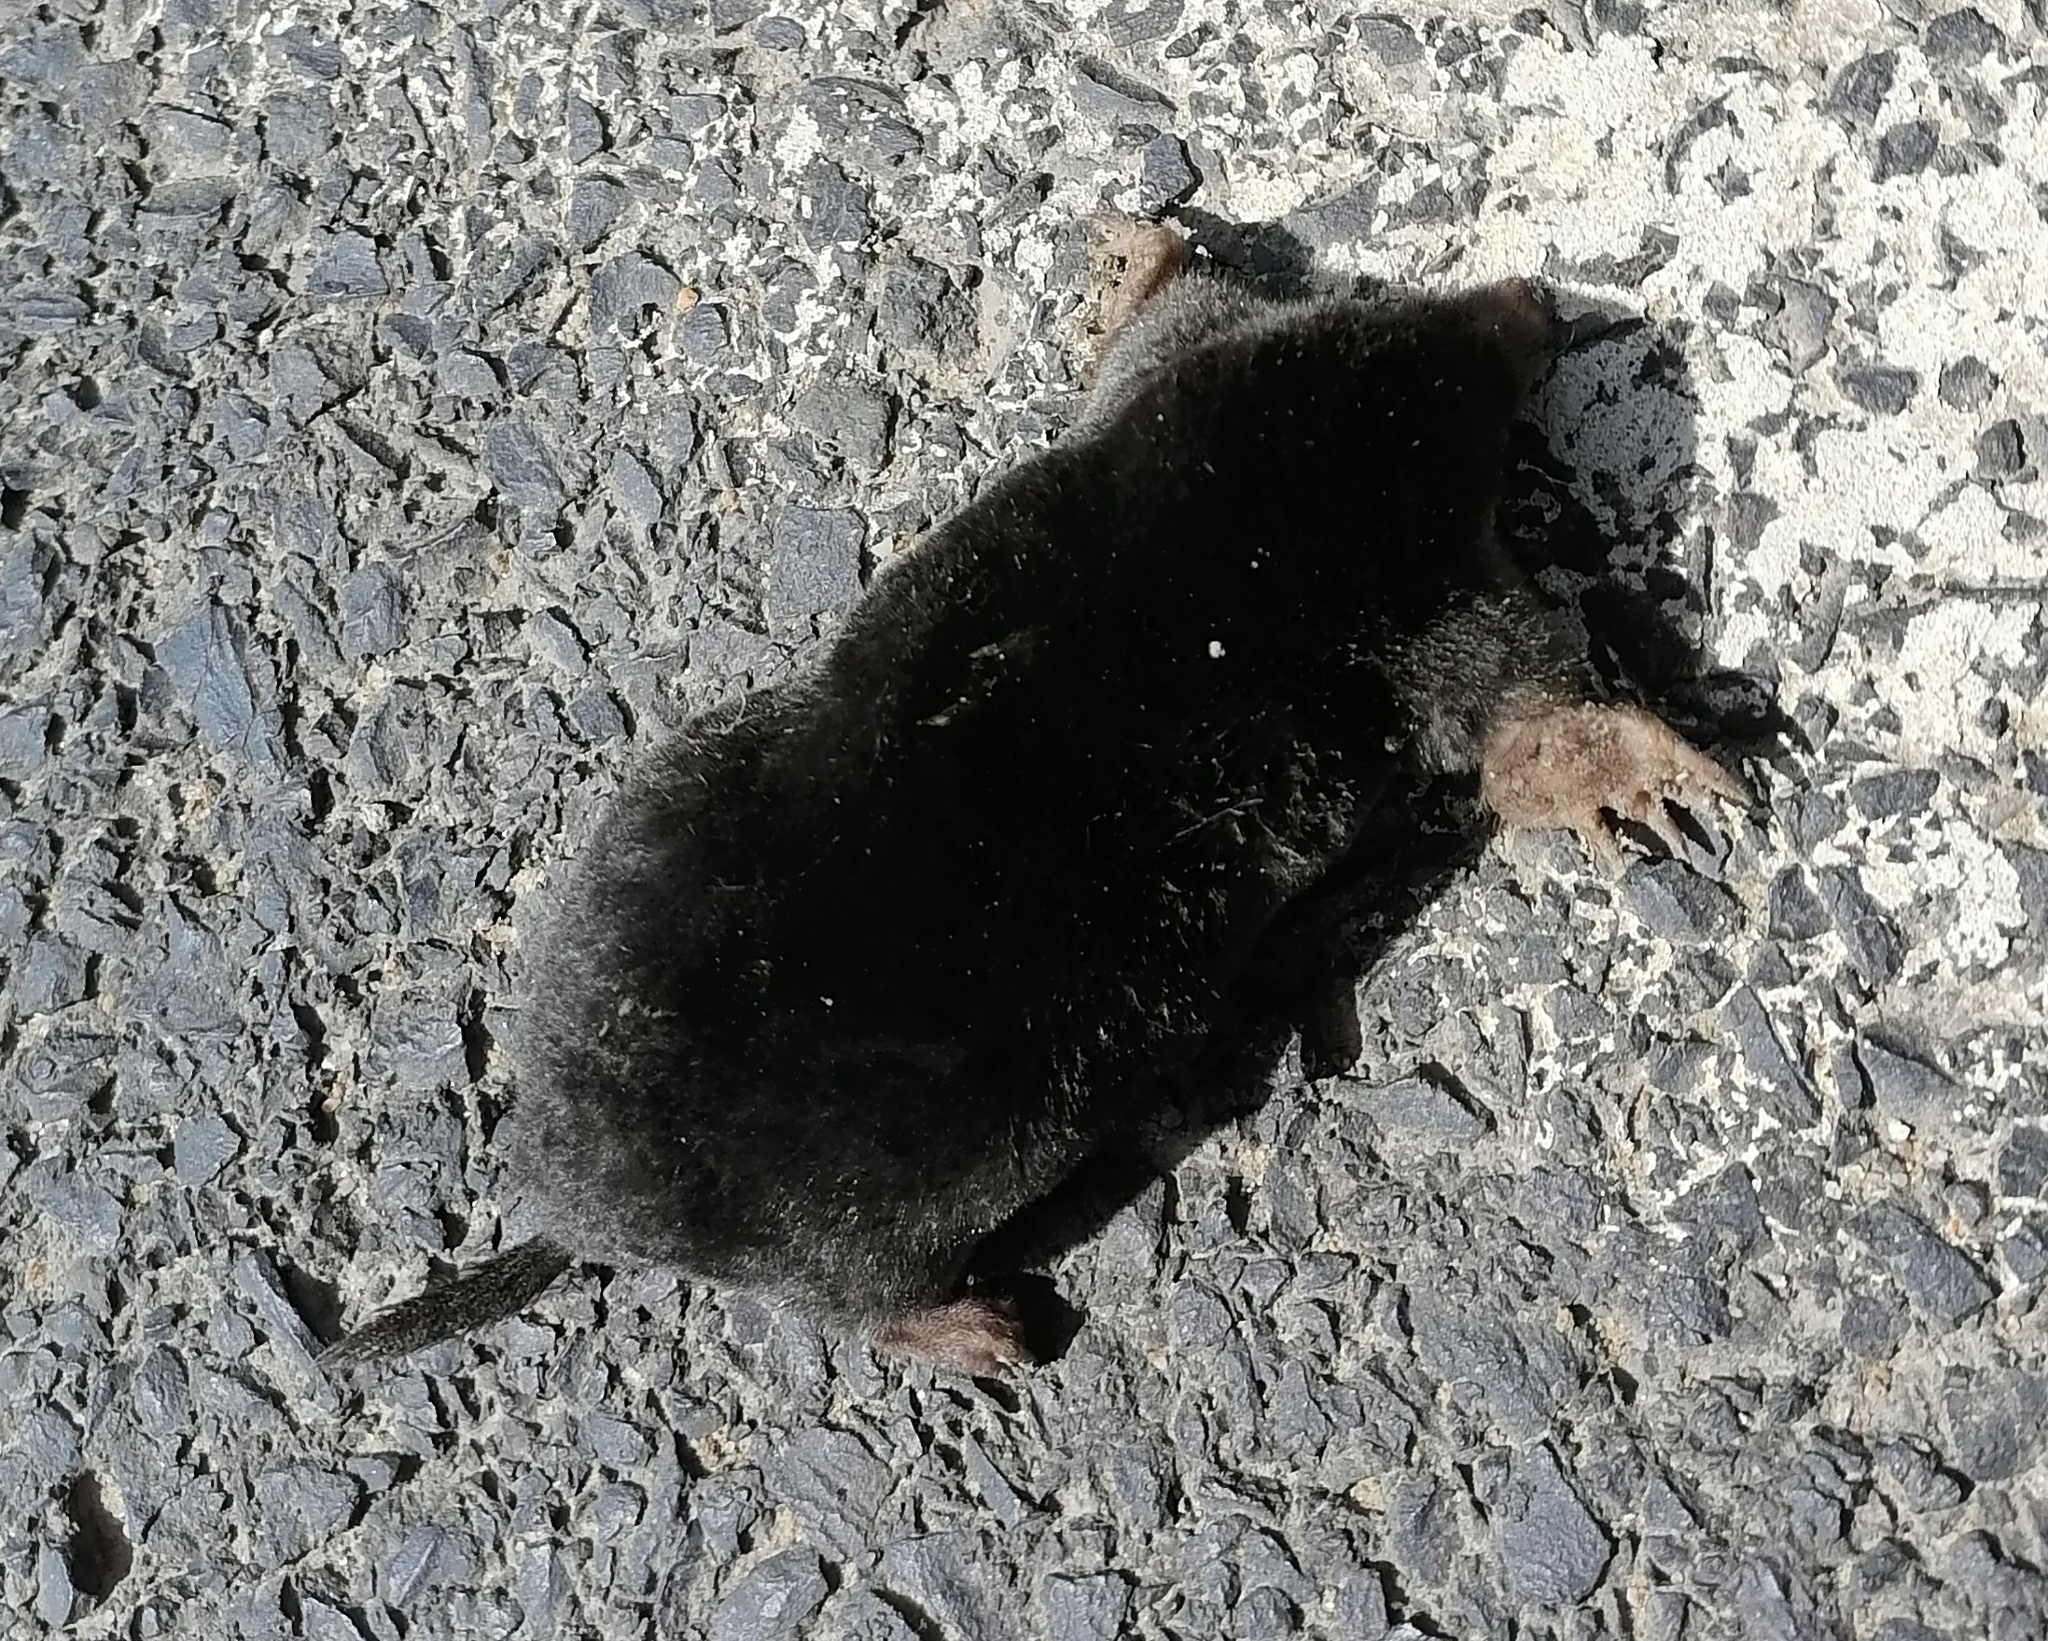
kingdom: Animalia
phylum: Chordata
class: Mammalia
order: Soricomorpha
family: Talpidae
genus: Talpa
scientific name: Talpa europaea
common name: European mole
